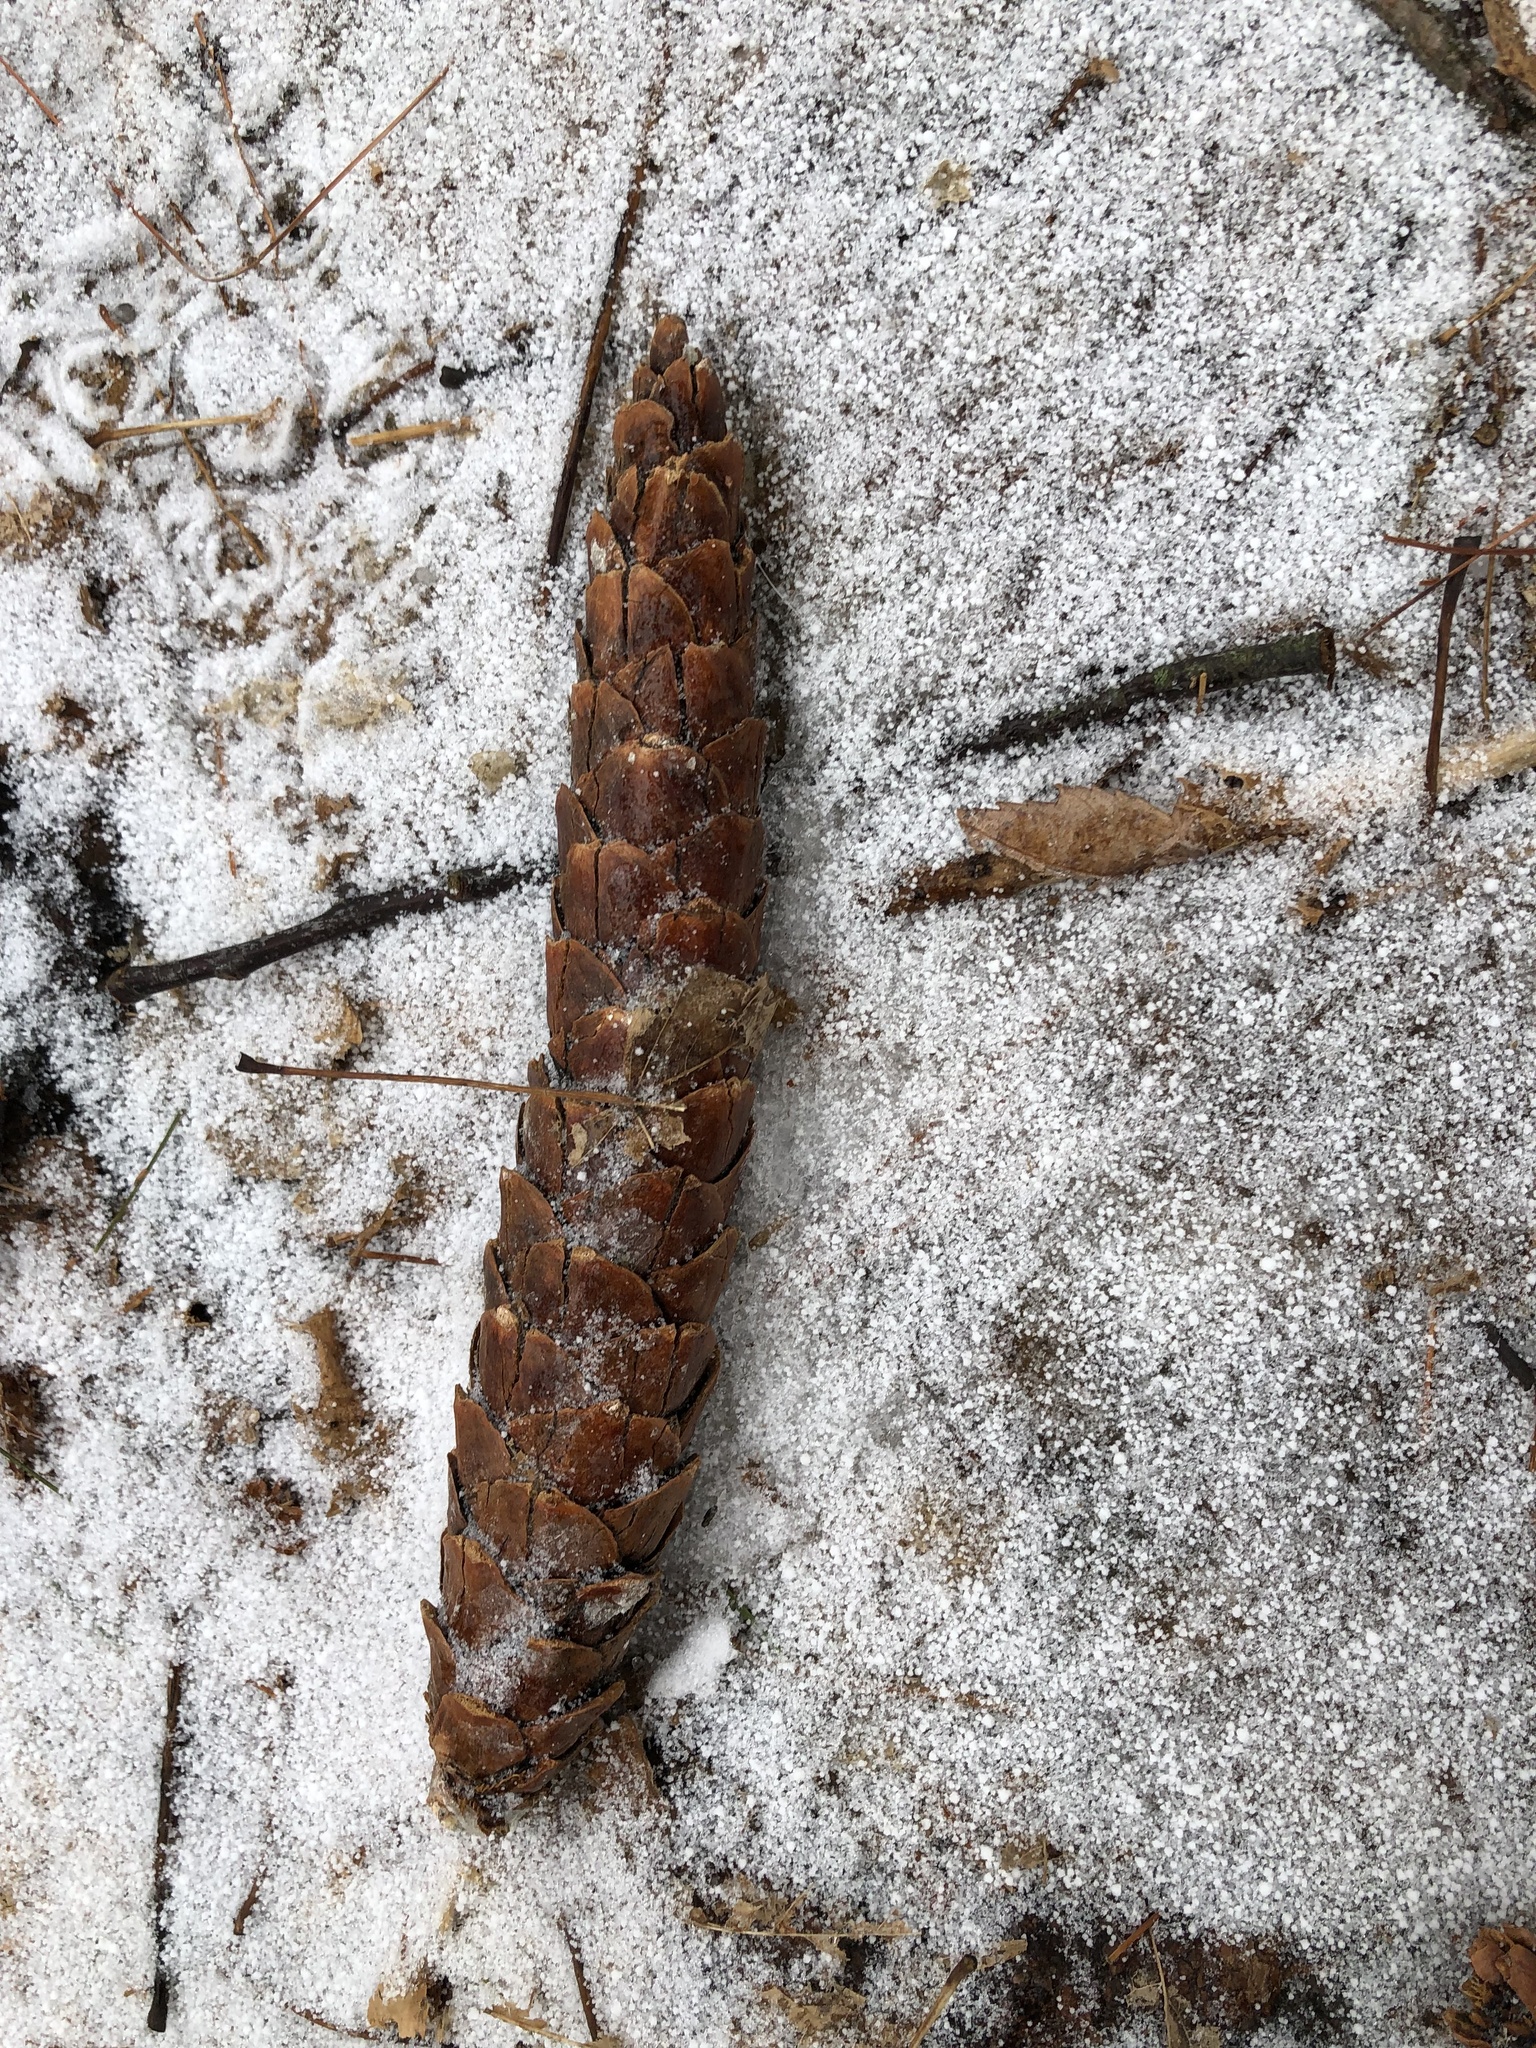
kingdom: Plantae
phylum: Tracheophyta
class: Pinopsida
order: Pinales
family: Pinaceae
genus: Pinus
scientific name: Pinus strobus
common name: Weymouth pine
